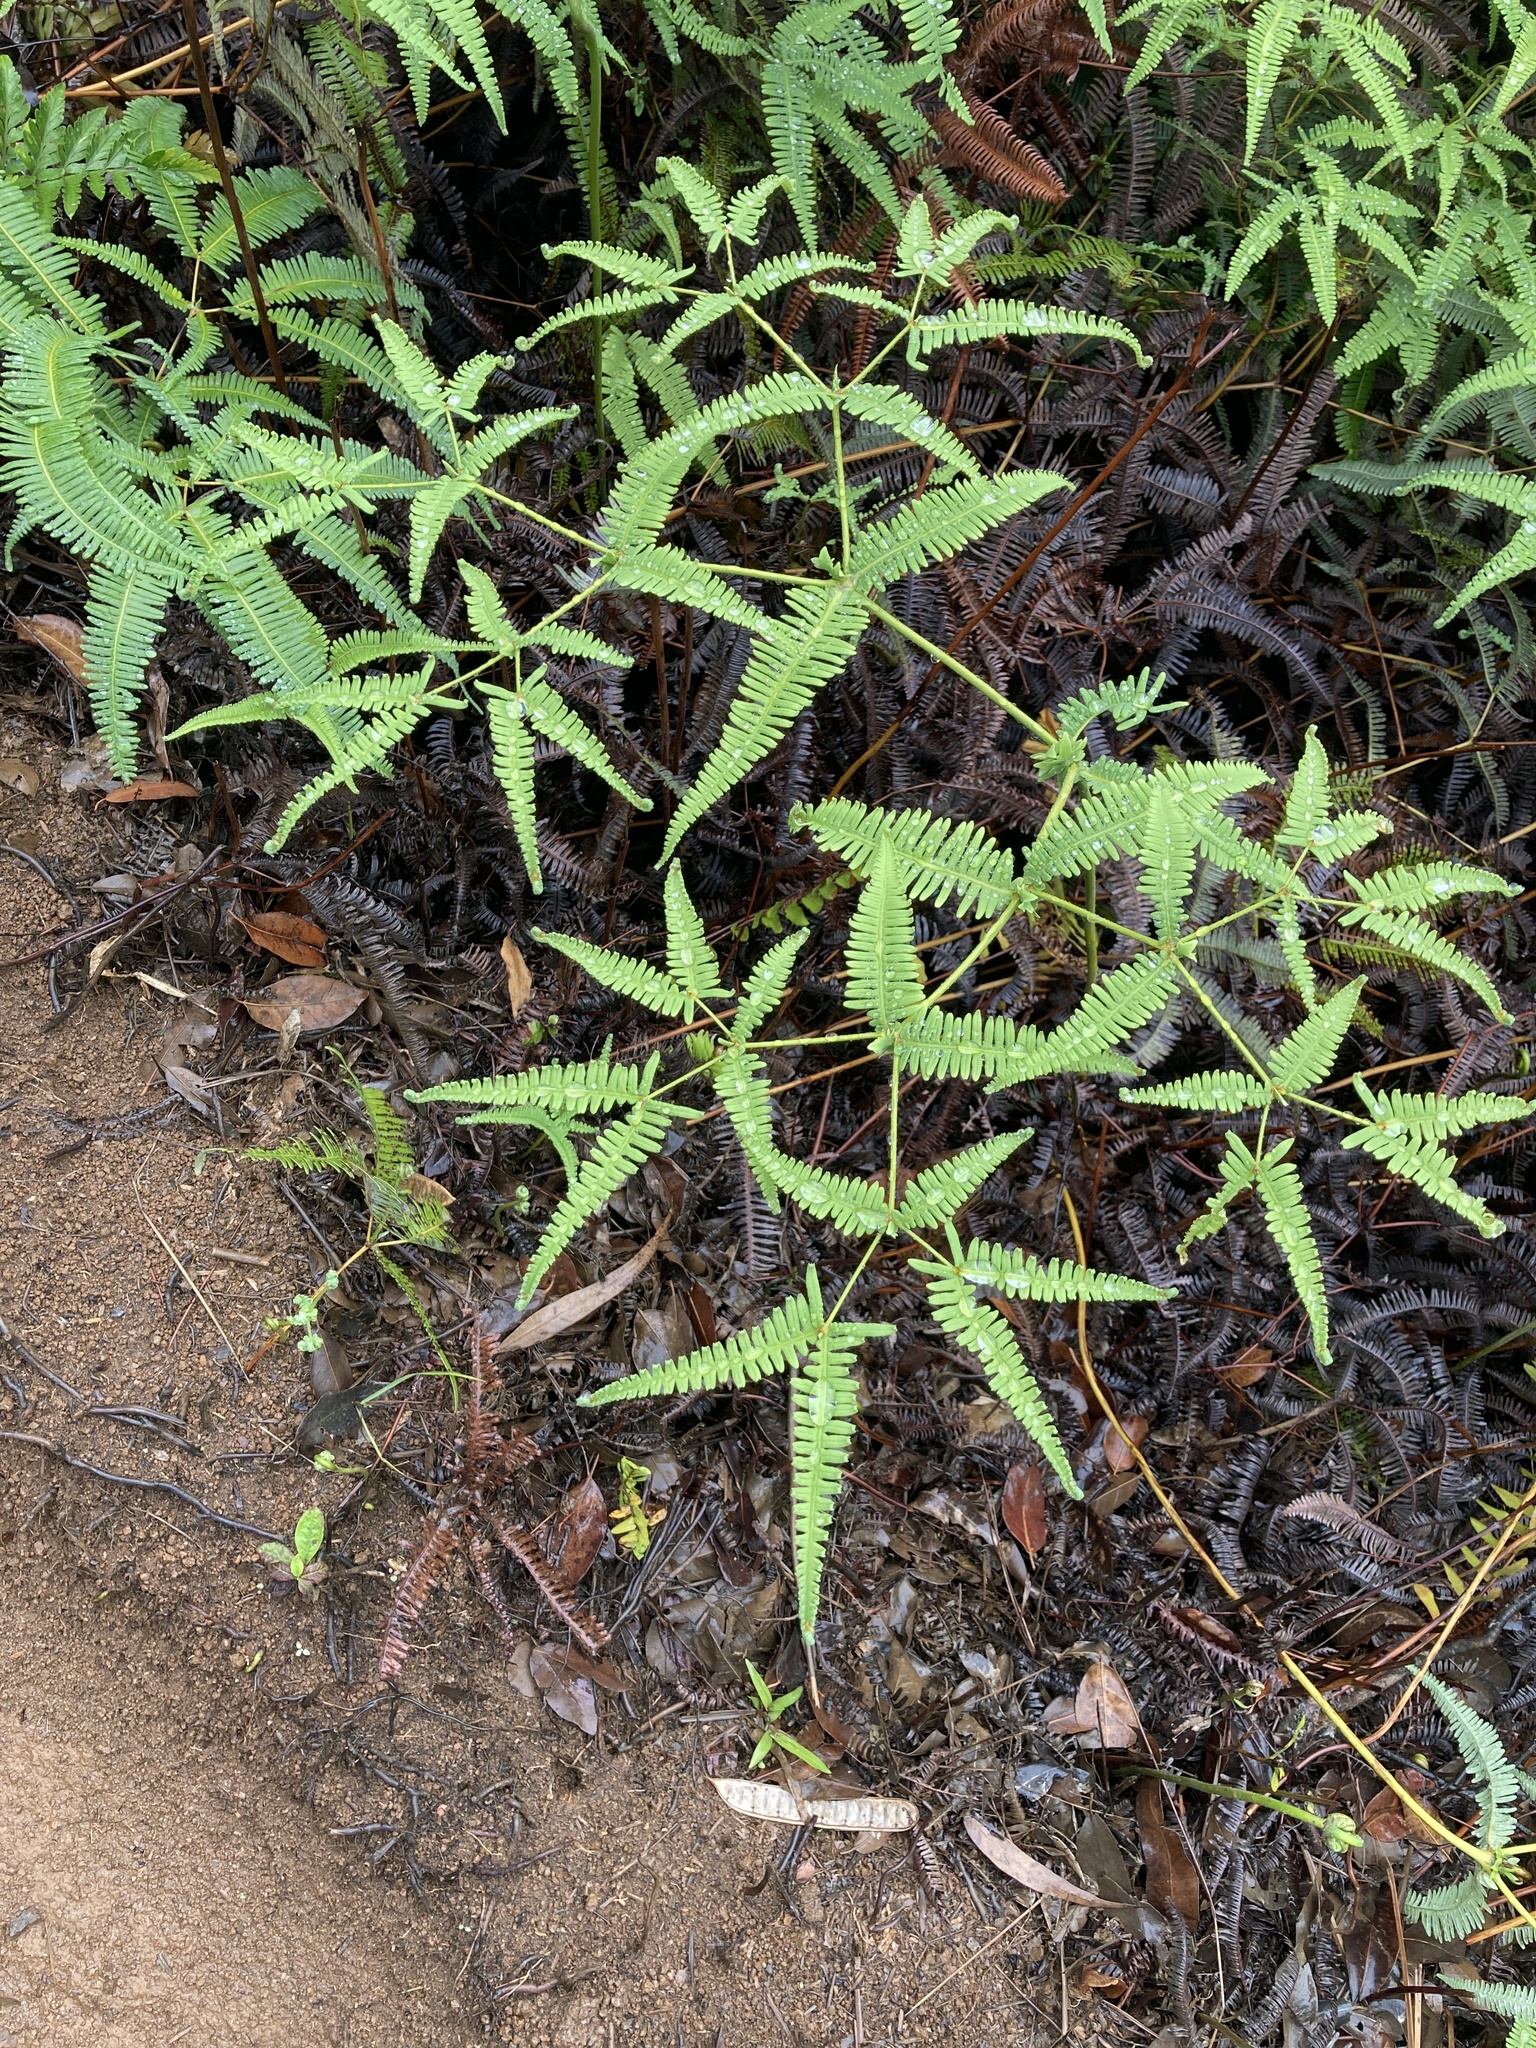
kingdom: Plantae
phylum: Tracheophyta
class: Polypodiopsida
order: Gleicheniales
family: Gleicheniaceae
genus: Dicranopteris
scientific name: Dicranopteris linearis
